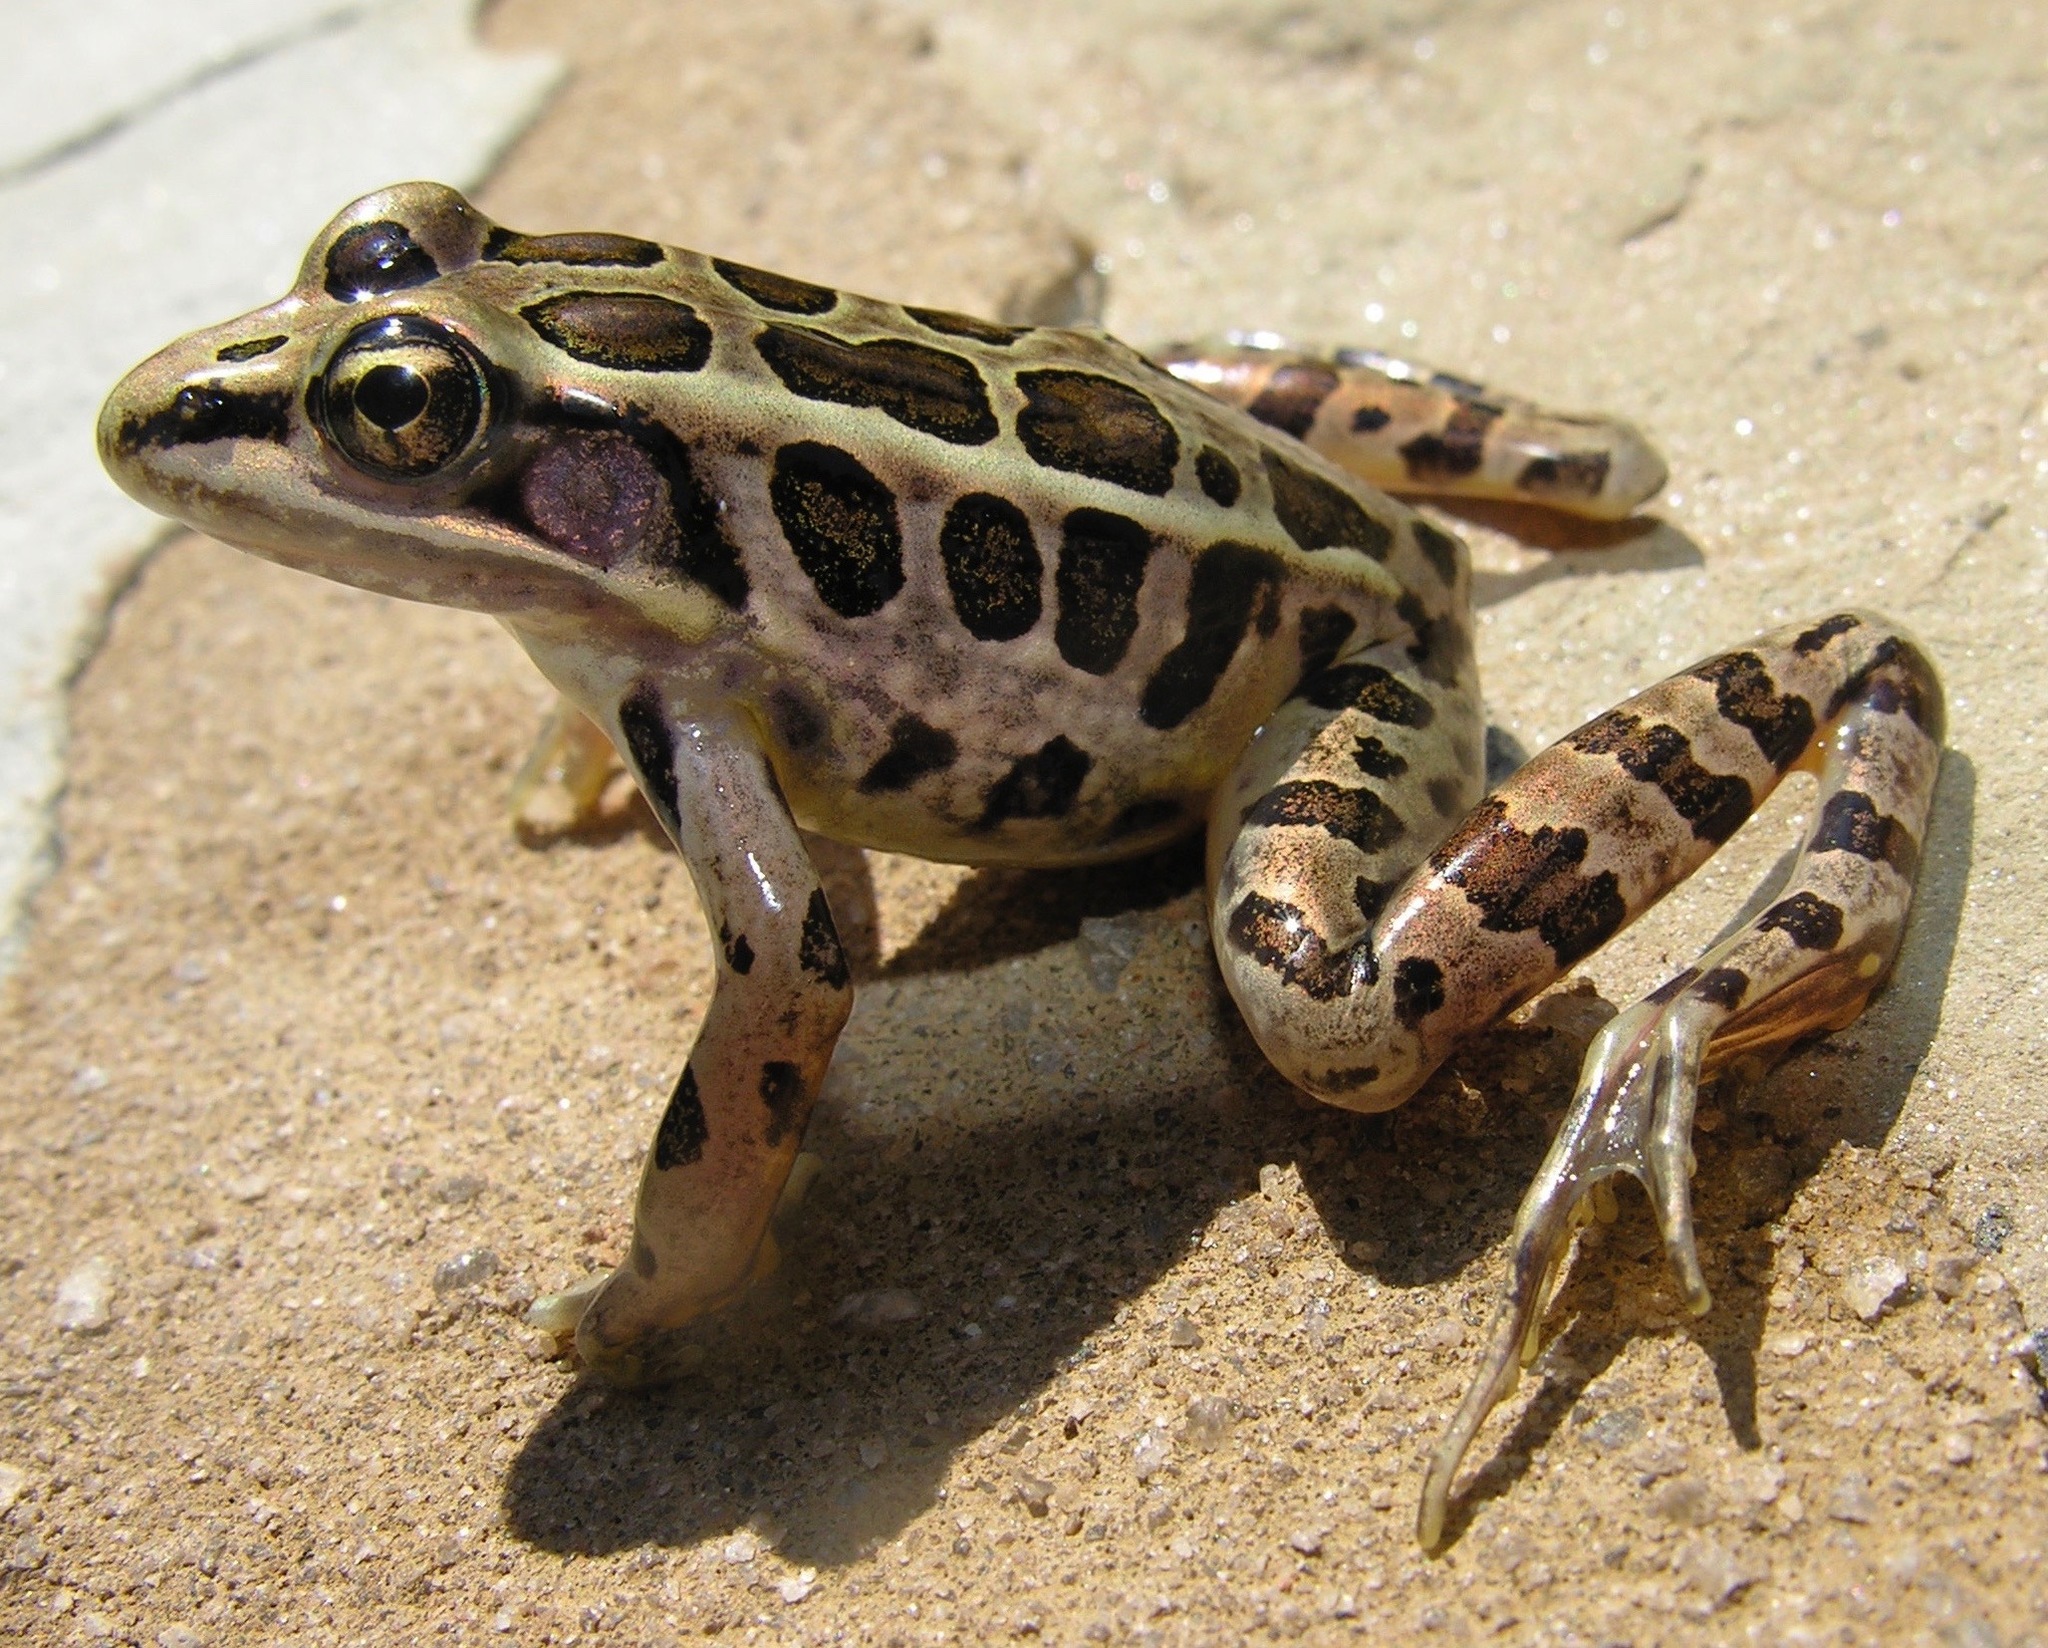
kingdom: Animalia
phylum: Chordata
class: Amphibia
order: Anura
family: Ranidae
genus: Lithobates
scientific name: Lithobates palustris
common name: Pickerel frog
